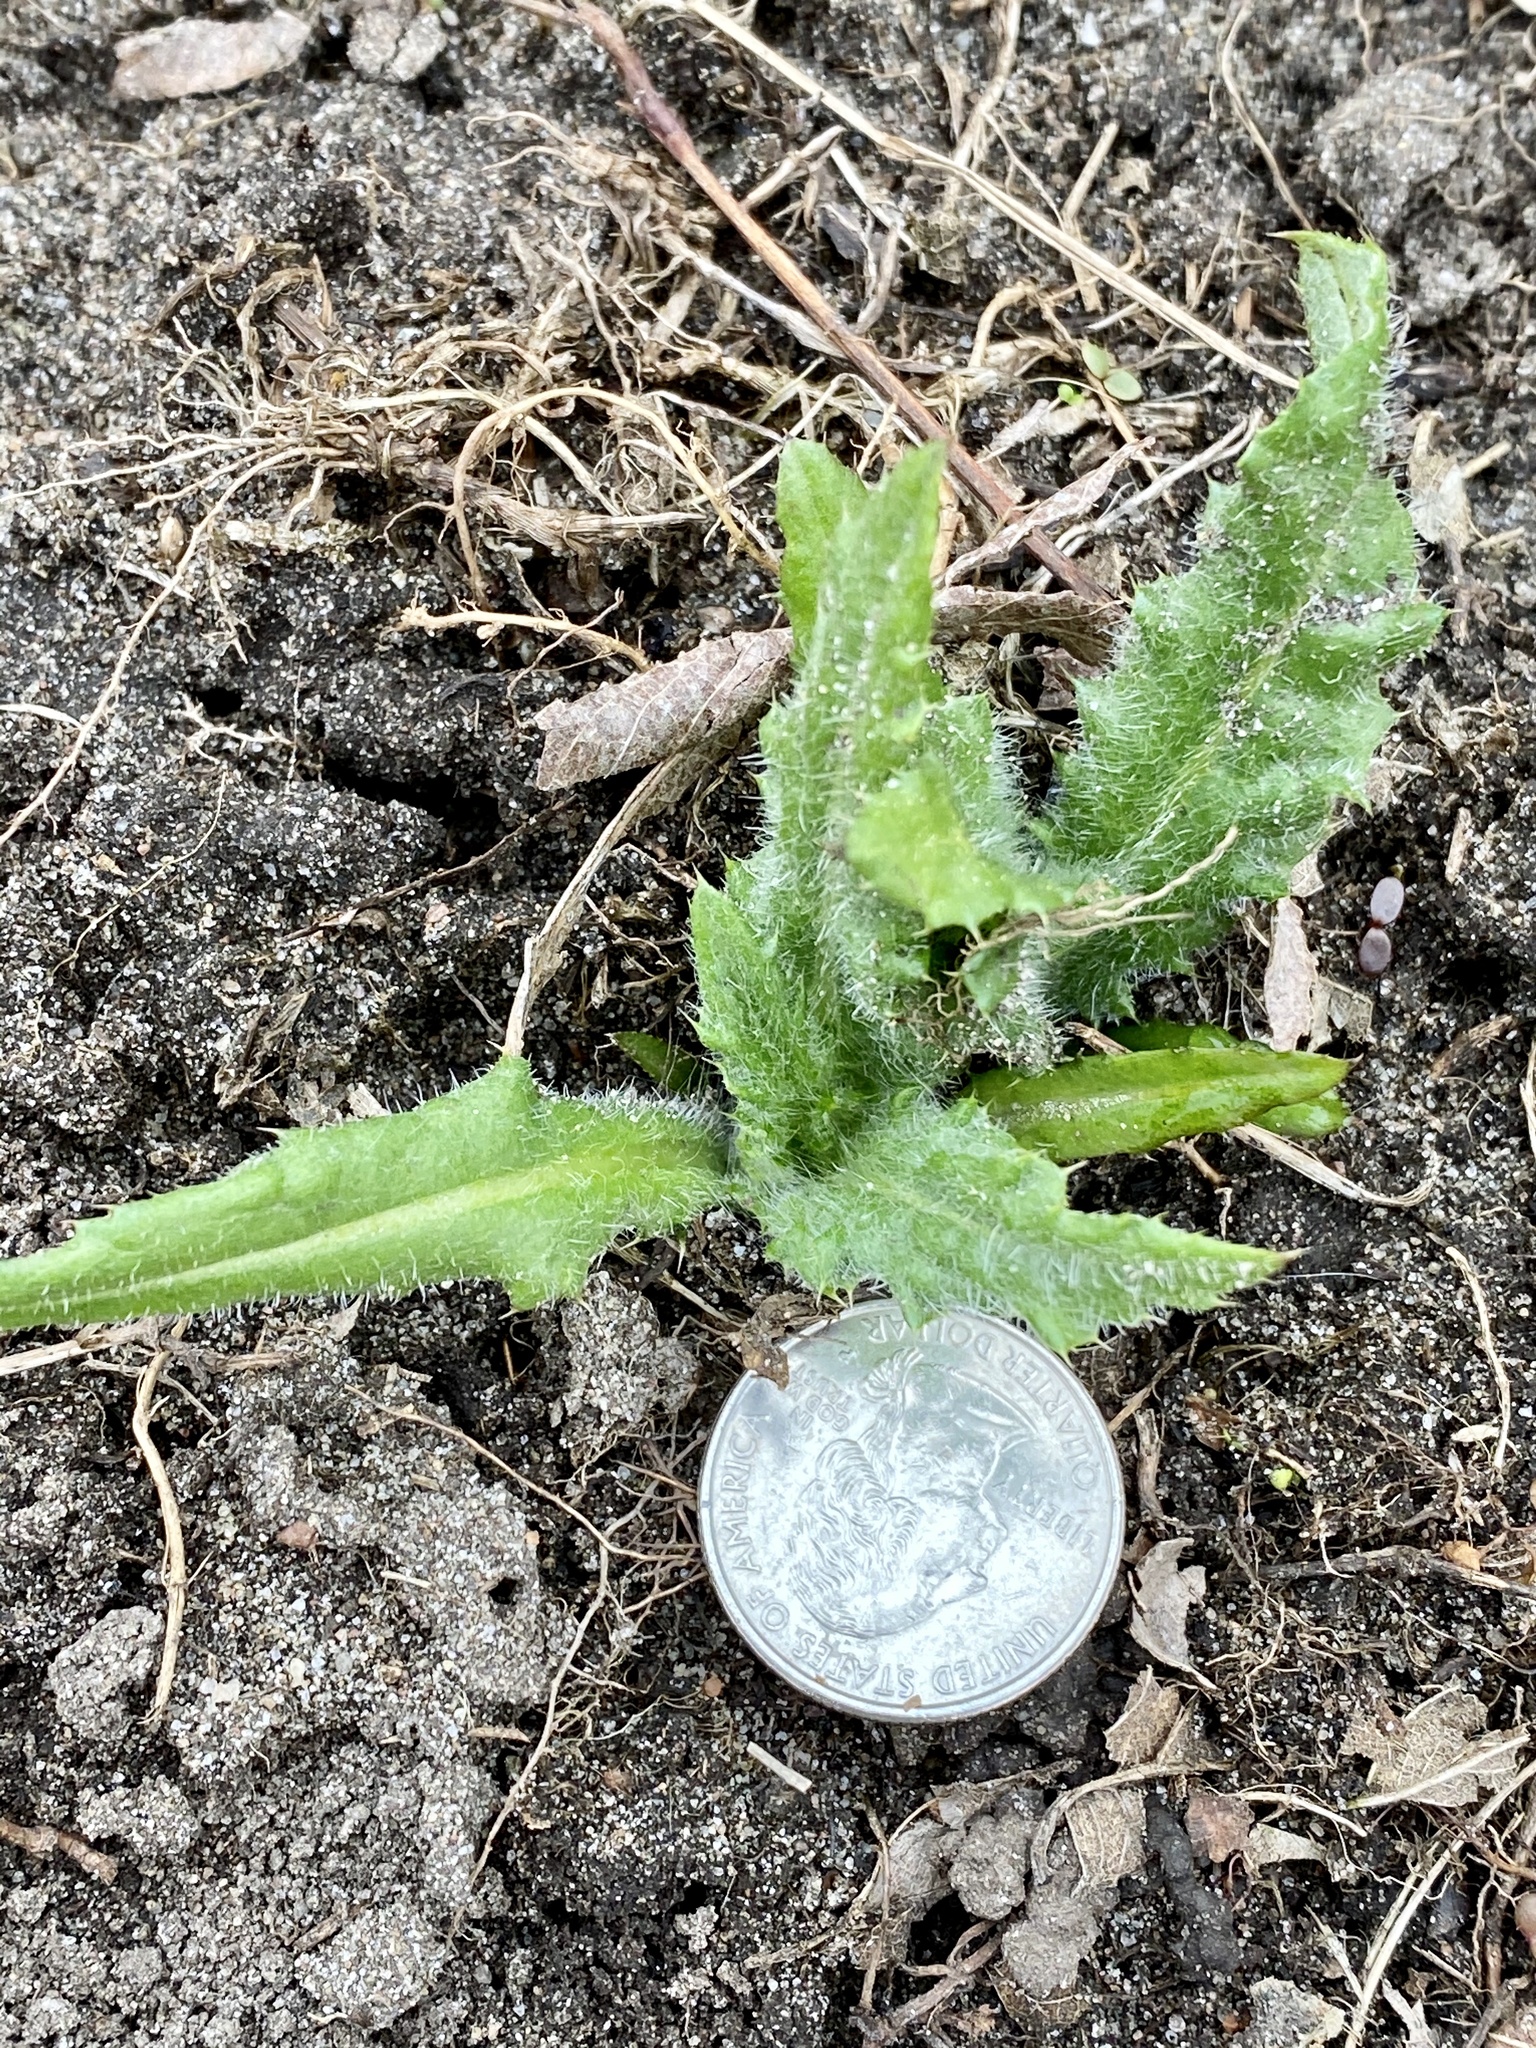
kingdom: Plantae
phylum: Tracheophyta
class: Magnoliopsida
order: Asterales
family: Asteraceae
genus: Cirsium
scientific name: Cirsium arvense
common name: Creeping thistle
